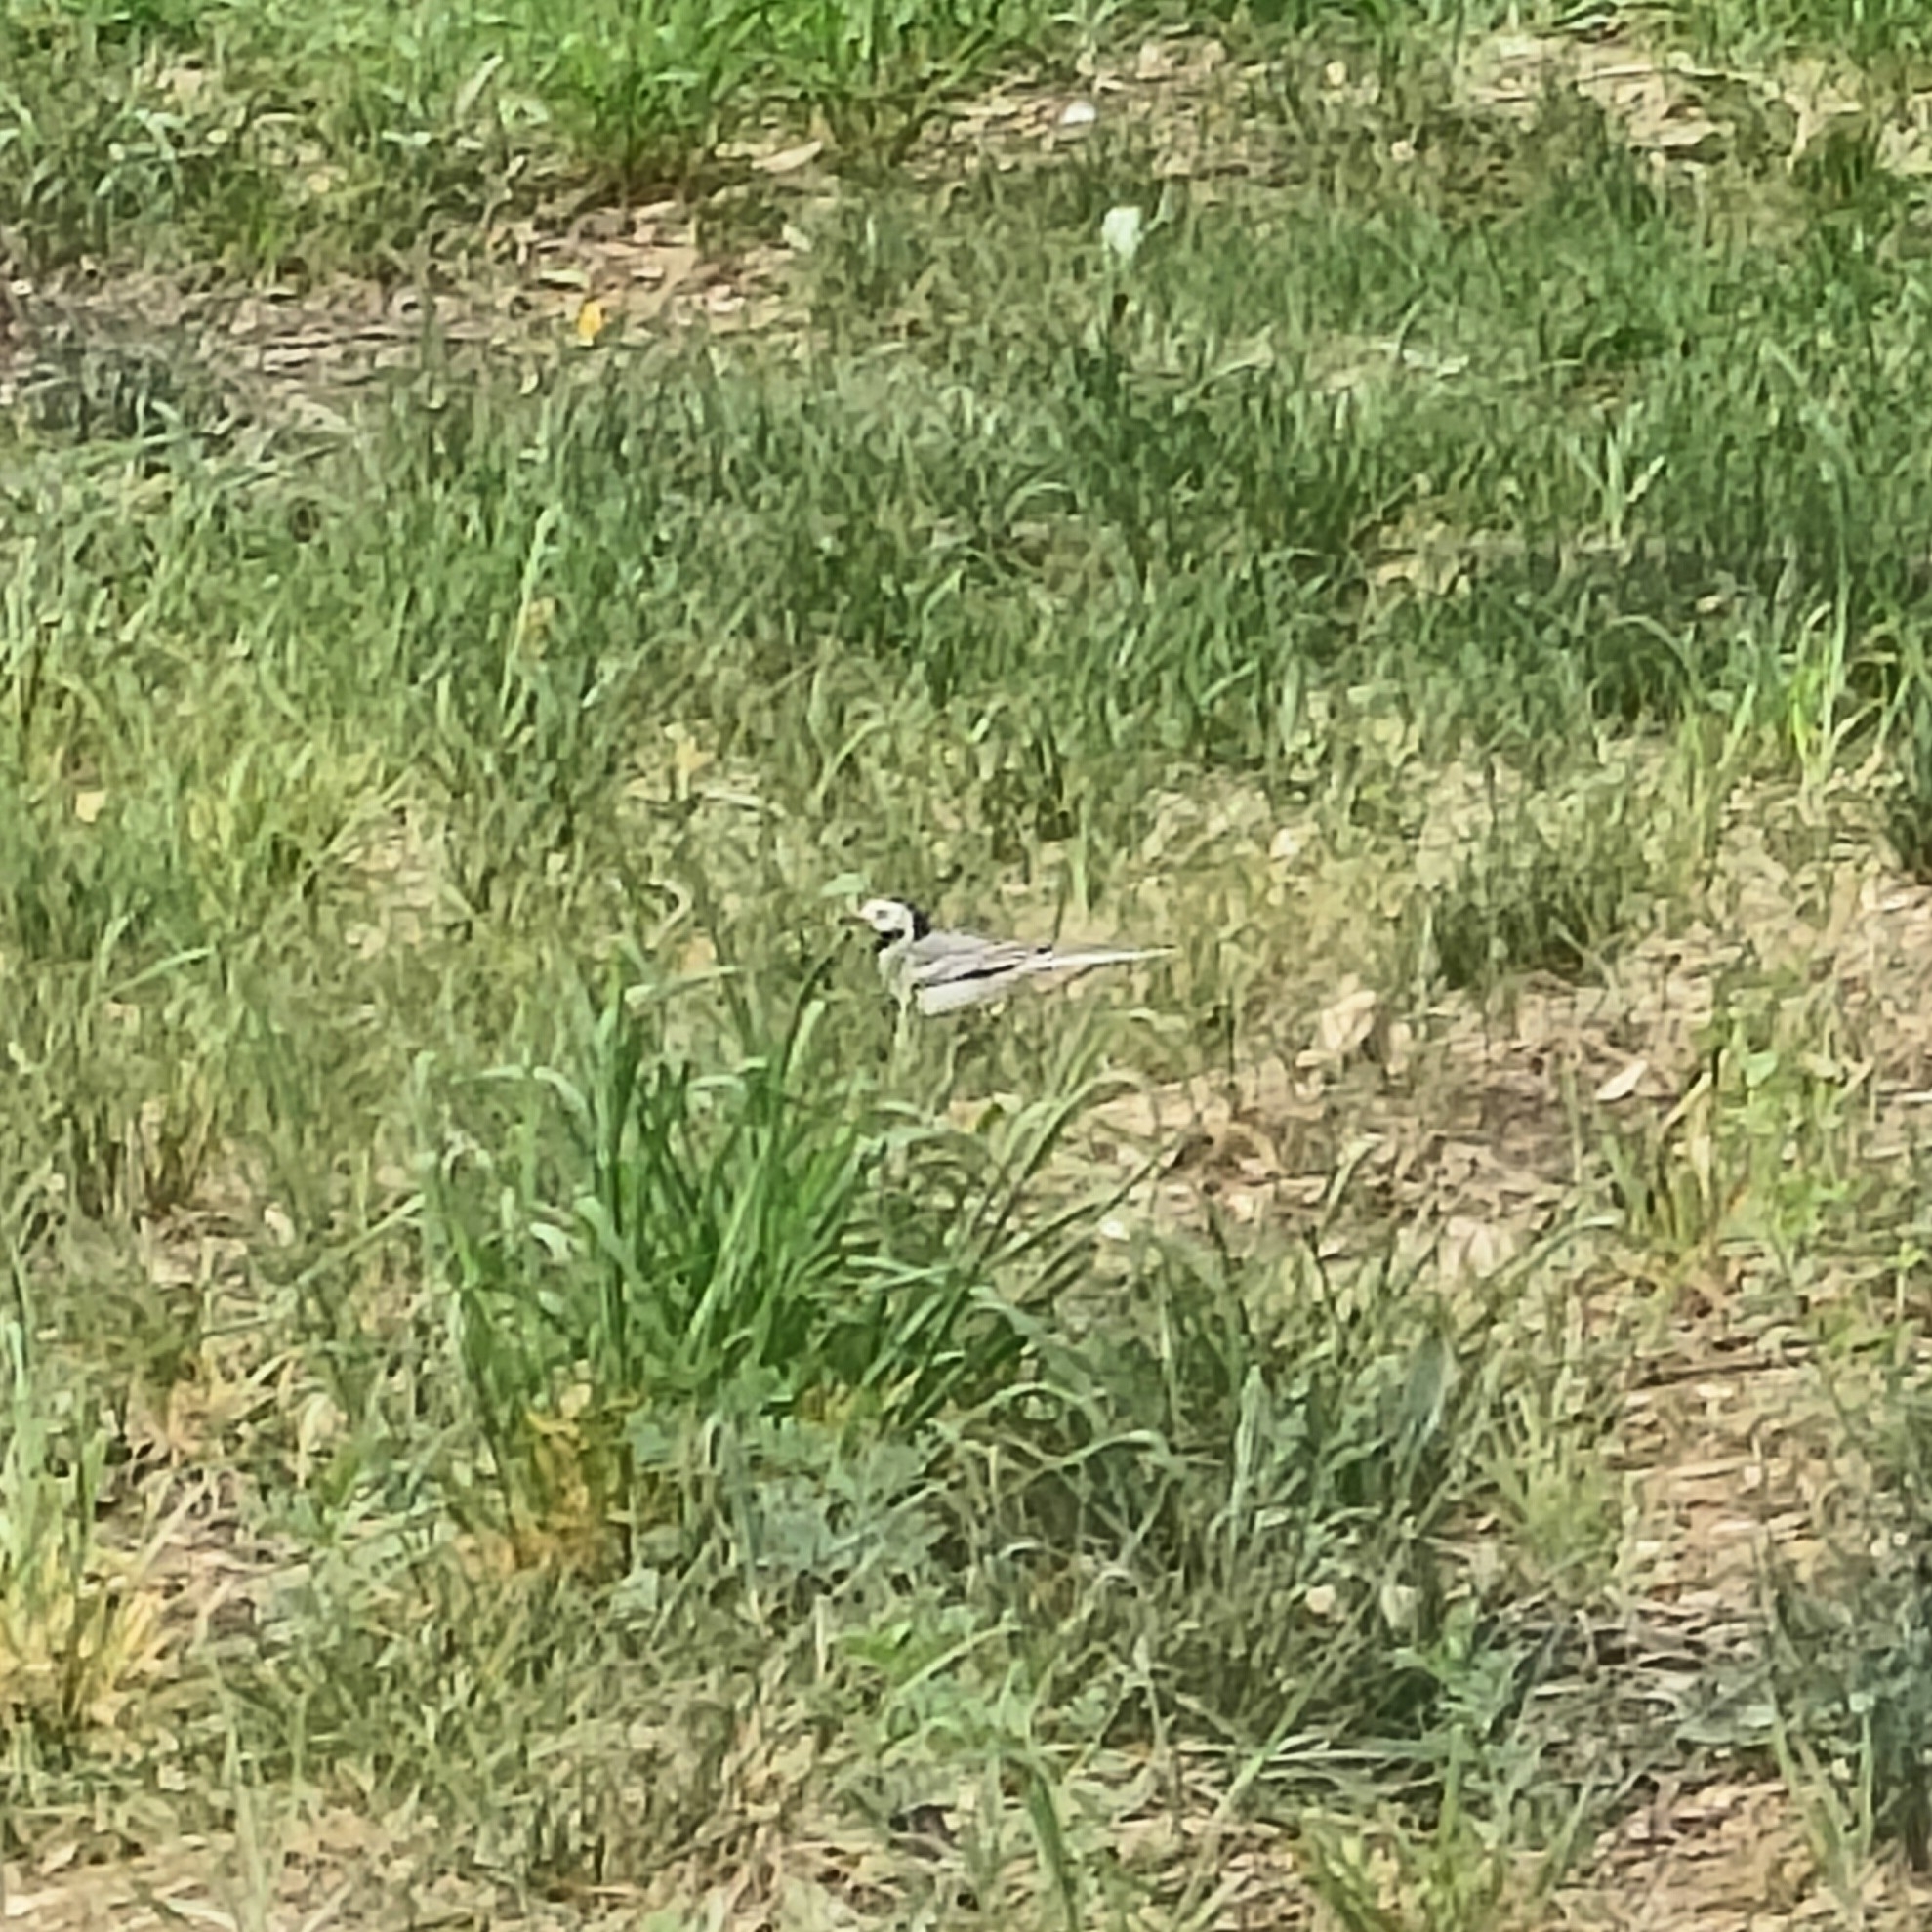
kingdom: Animalia
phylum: Chordata
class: Aves
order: Passeriformes
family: Motacillidae
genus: Motacilla
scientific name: Motacilla alba
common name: White wagtail
